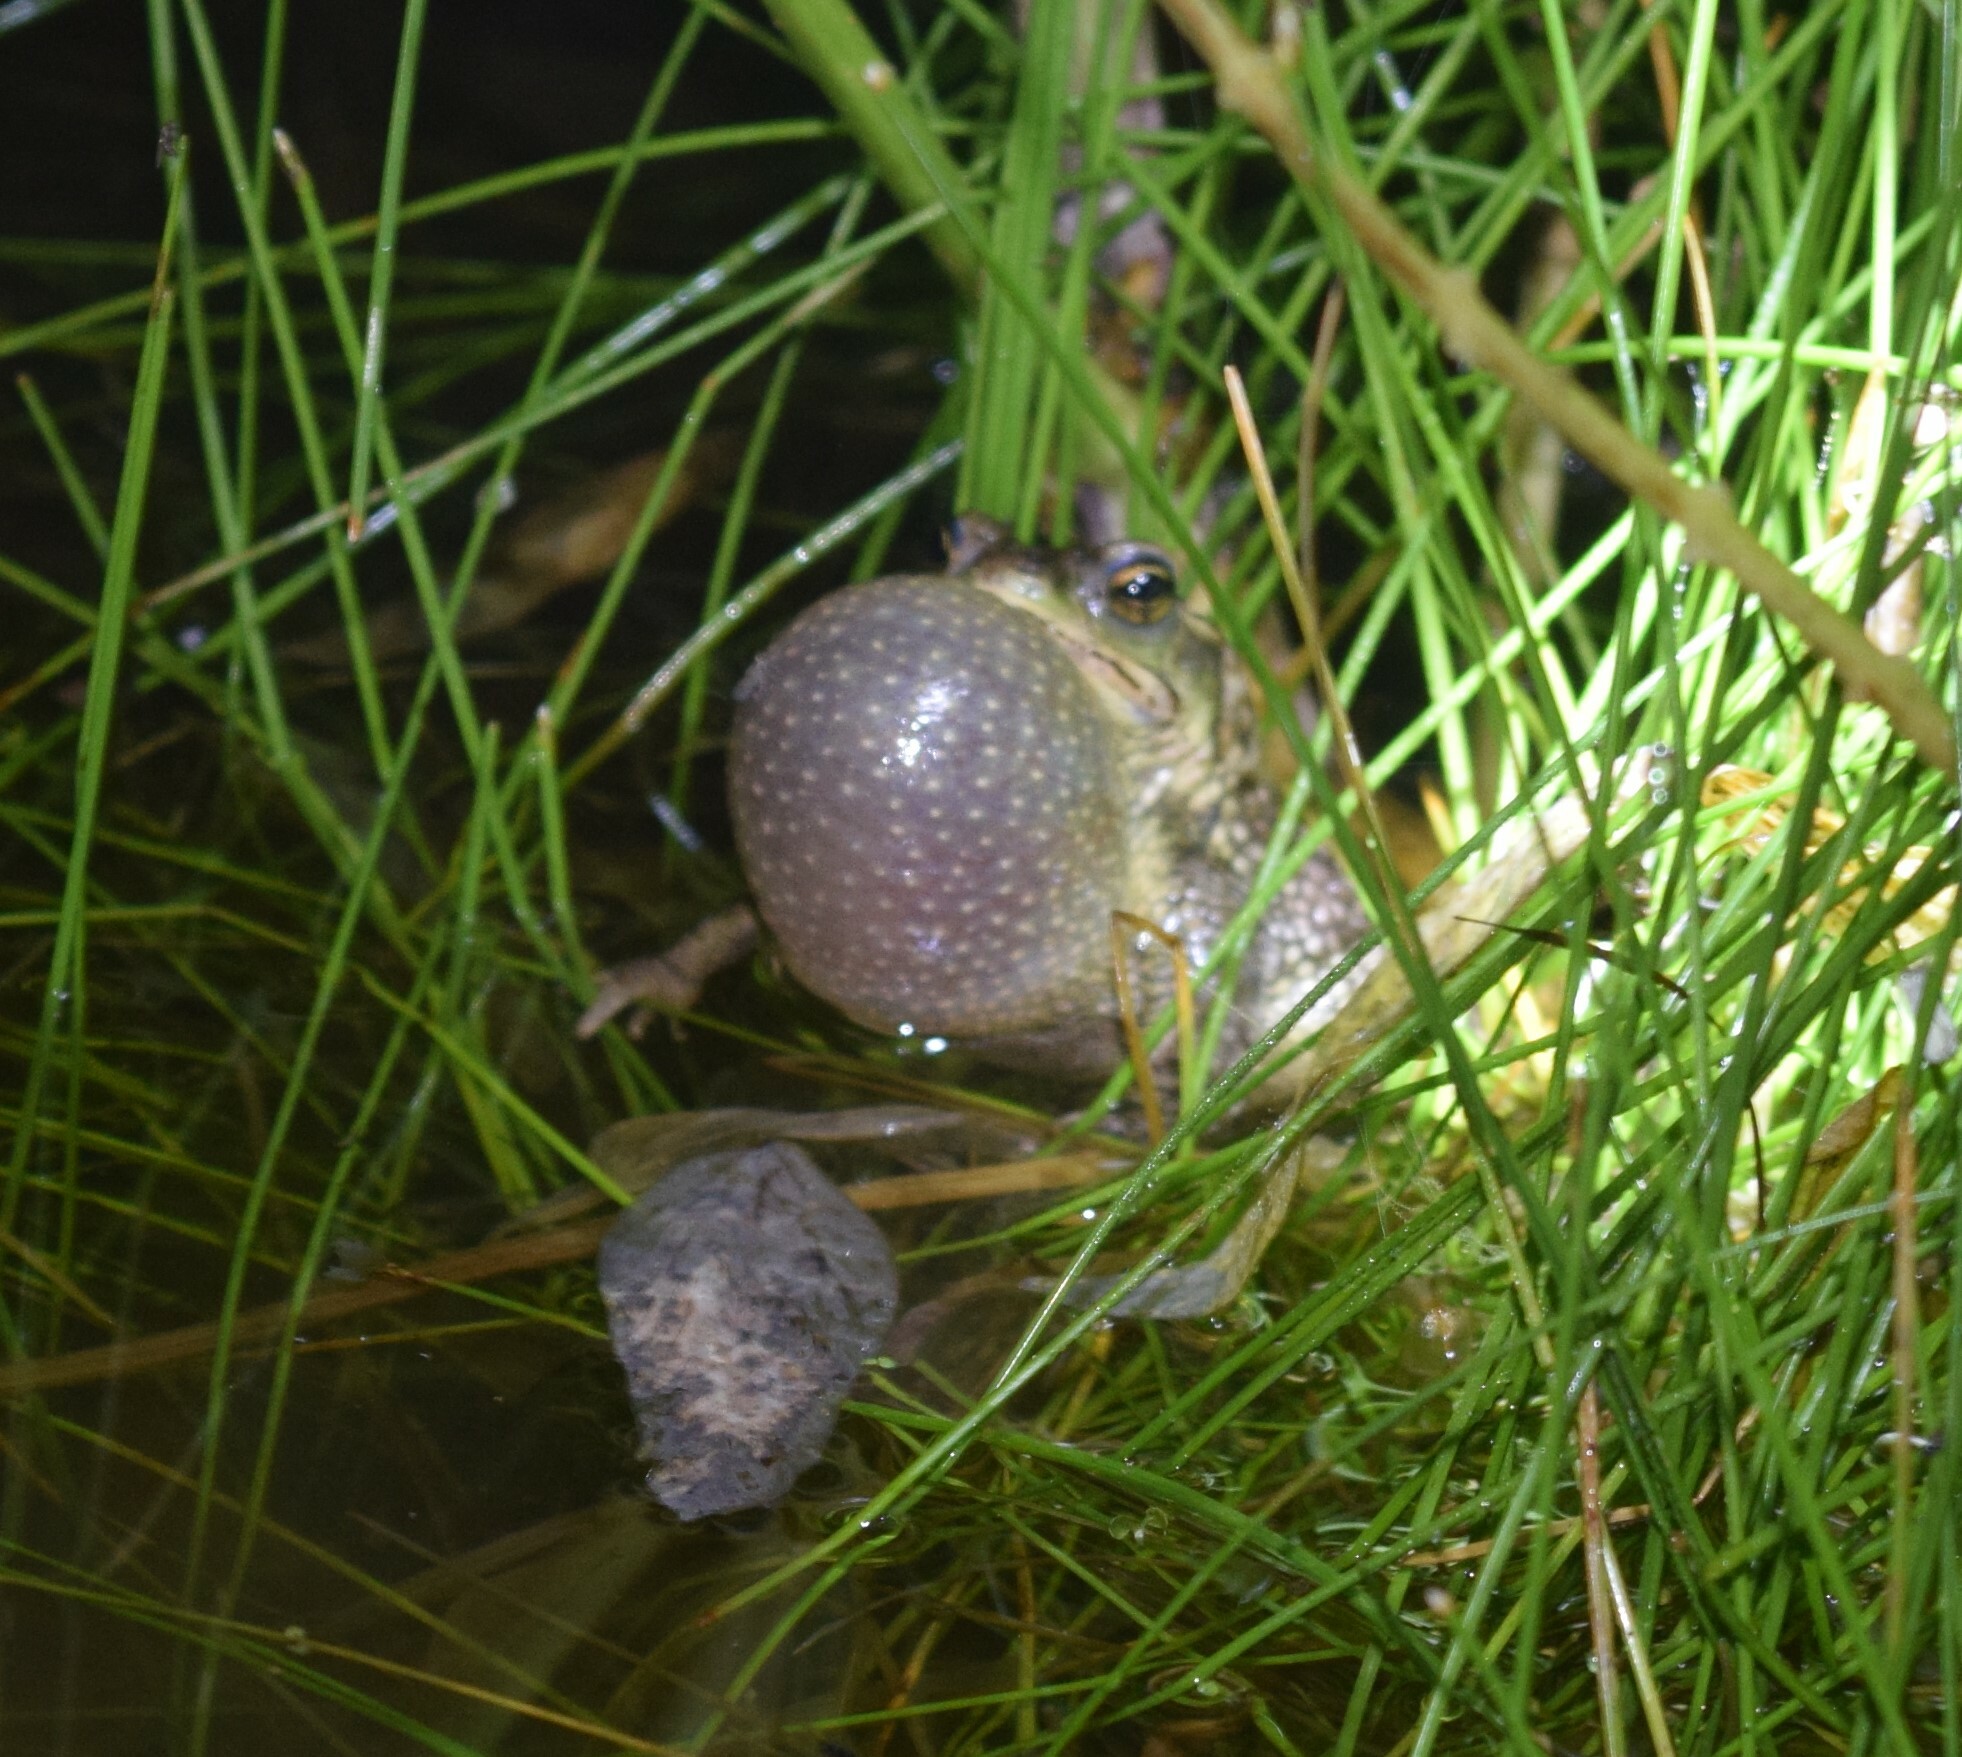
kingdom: Animalia
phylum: Chordata
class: Amphibia
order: Anura
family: Bufonidae
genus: Rhinella
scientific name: Rhinella dorbignyi
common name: D´orbigny’s toad
